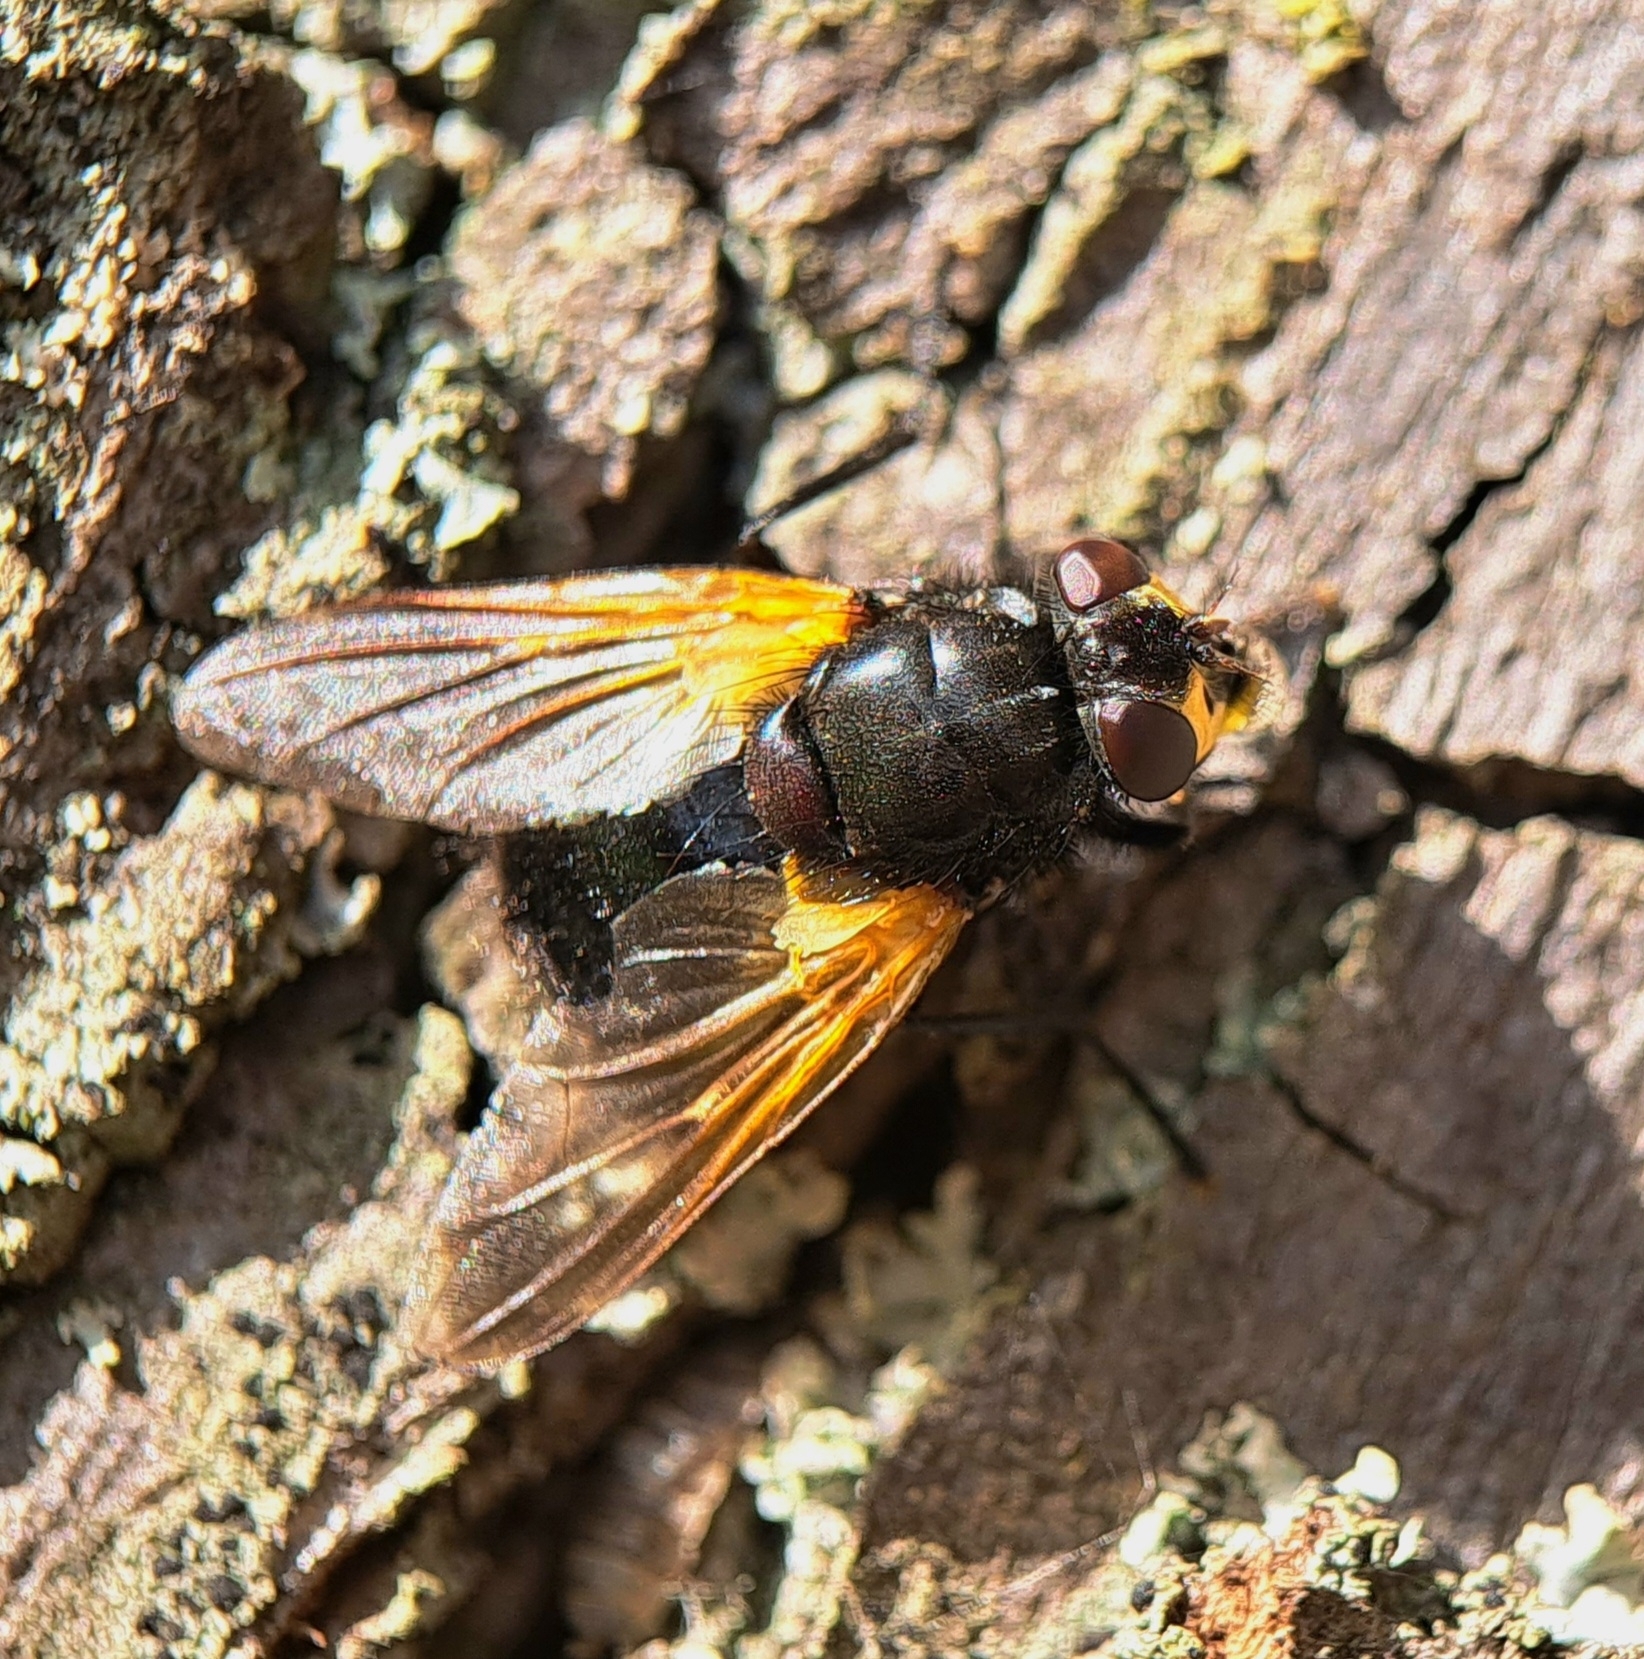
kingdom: Animalia
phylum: Arthropoda
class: Insecta
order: Diptera
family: Muscidae
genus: Mesembrina
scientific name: Mesembrina meridiana
